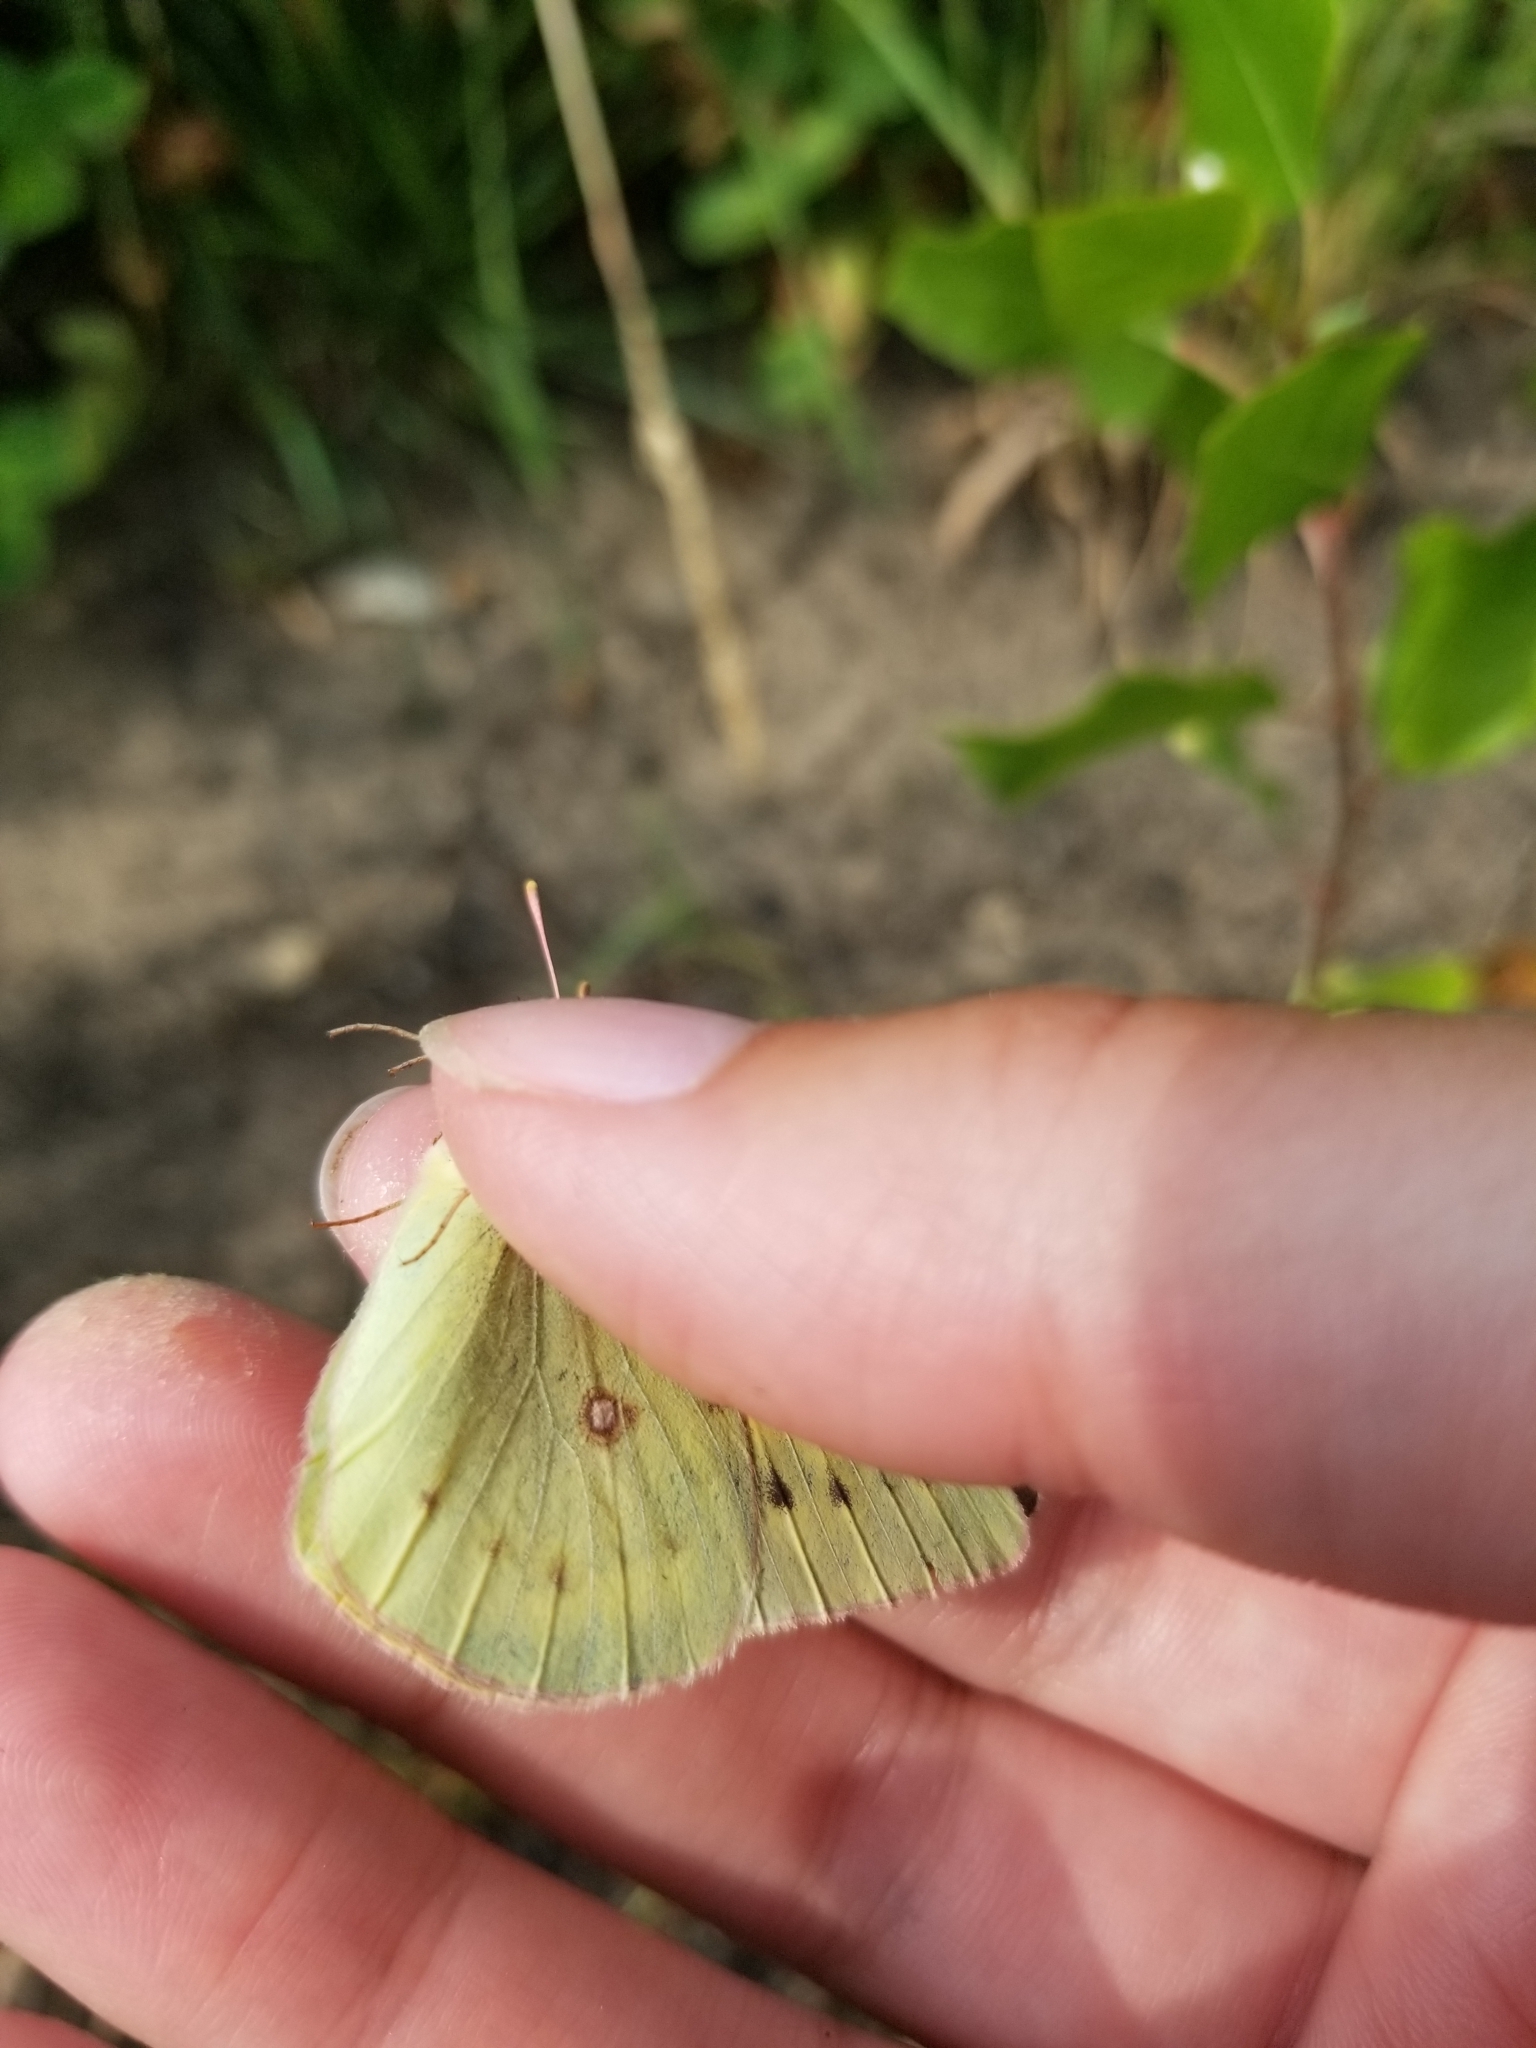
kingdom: Animalia
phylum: Arthropoda
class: Insecta
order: Lepidoptera
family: Pieridae
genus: Colias
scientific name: Colias eurytheme
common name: Alfalfa butterfly
